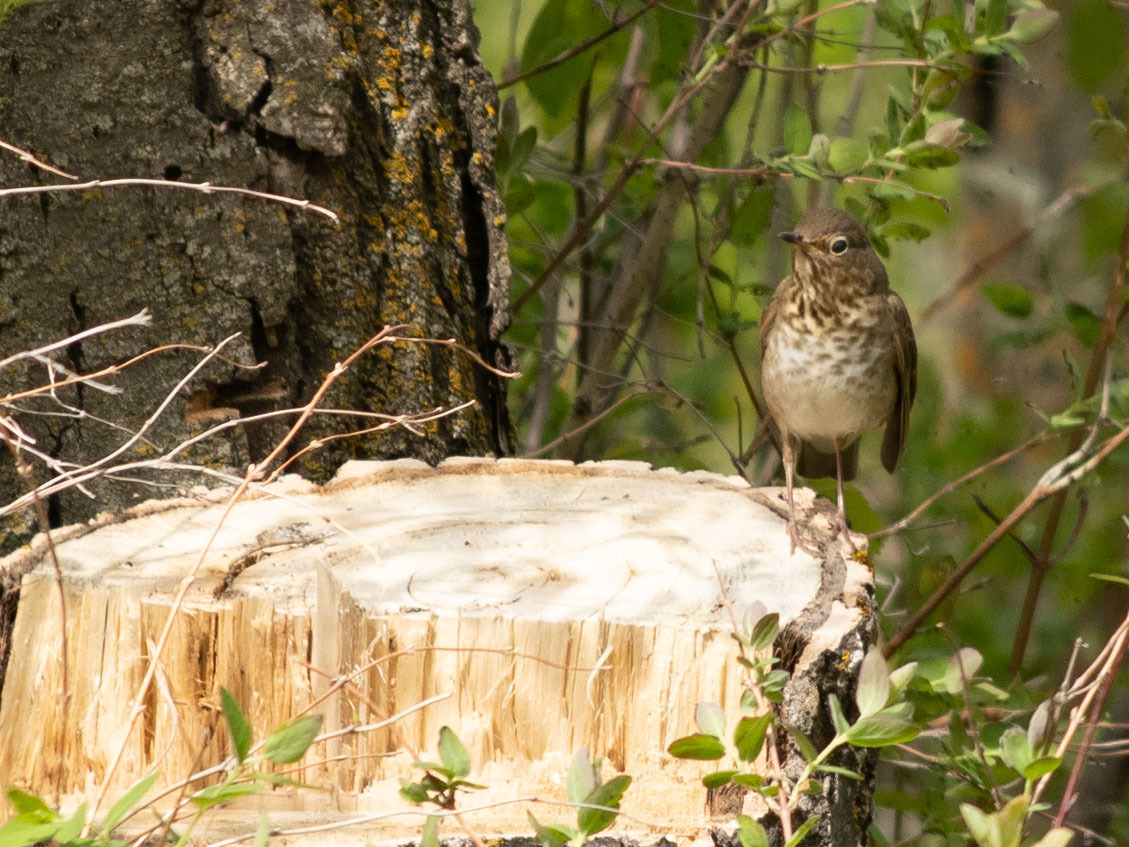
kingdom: Animalia
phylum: Chordata
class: Aves
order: Passeriformes
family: Turdidae
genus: Catharus
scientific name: Catharus ustulatus
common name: Swainson's thrush
